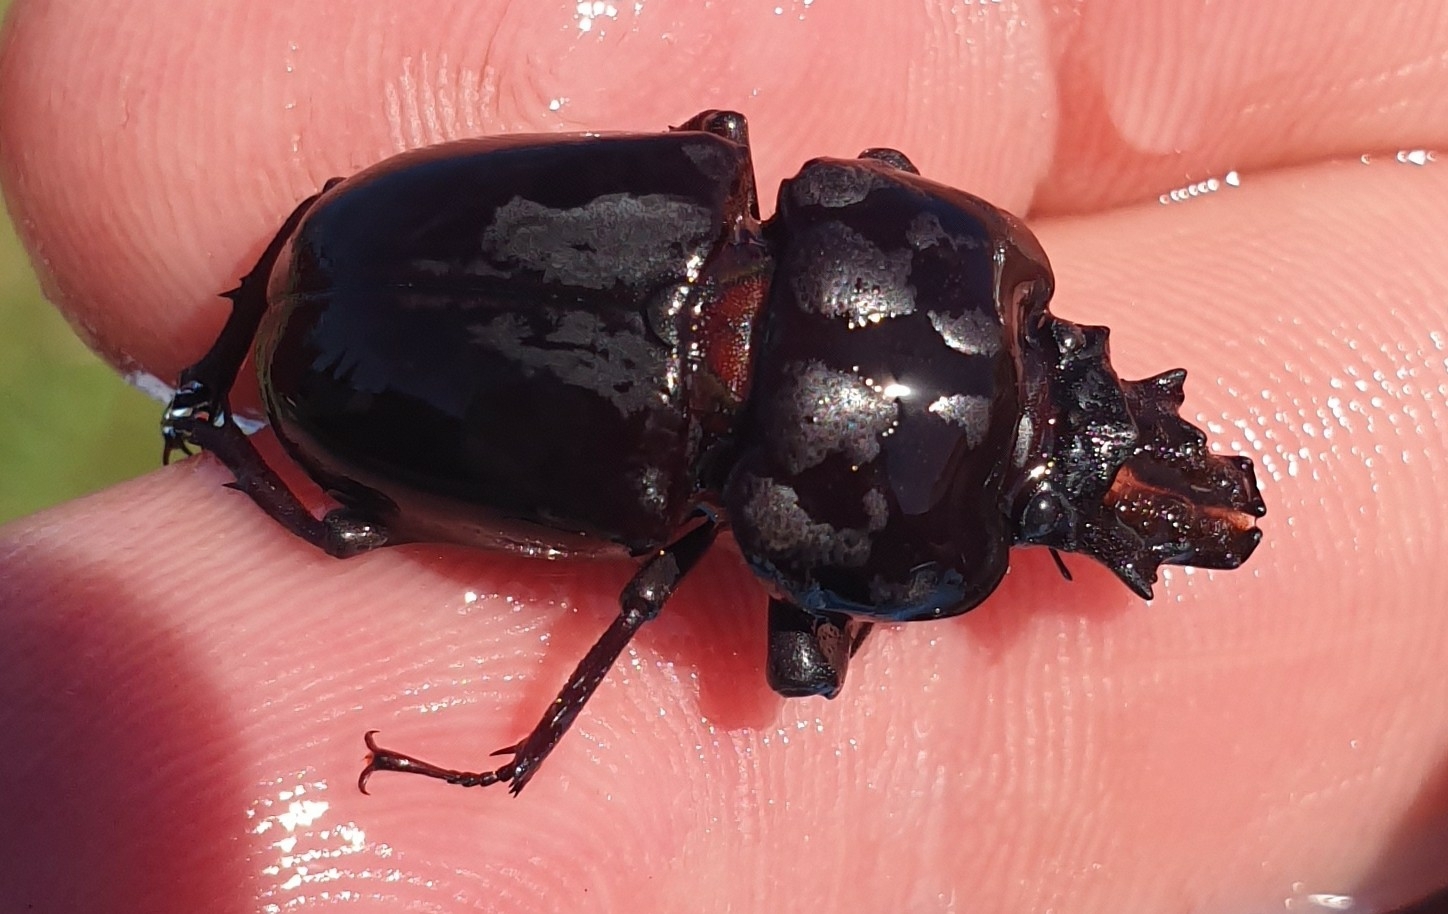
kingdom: Animalia
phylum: Arthropoda
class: Insecta
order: Coleoptera
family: Lucanidae
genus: Ryssonotus
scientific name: Ryssonotus nebulosus
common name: Brown stag beetle
